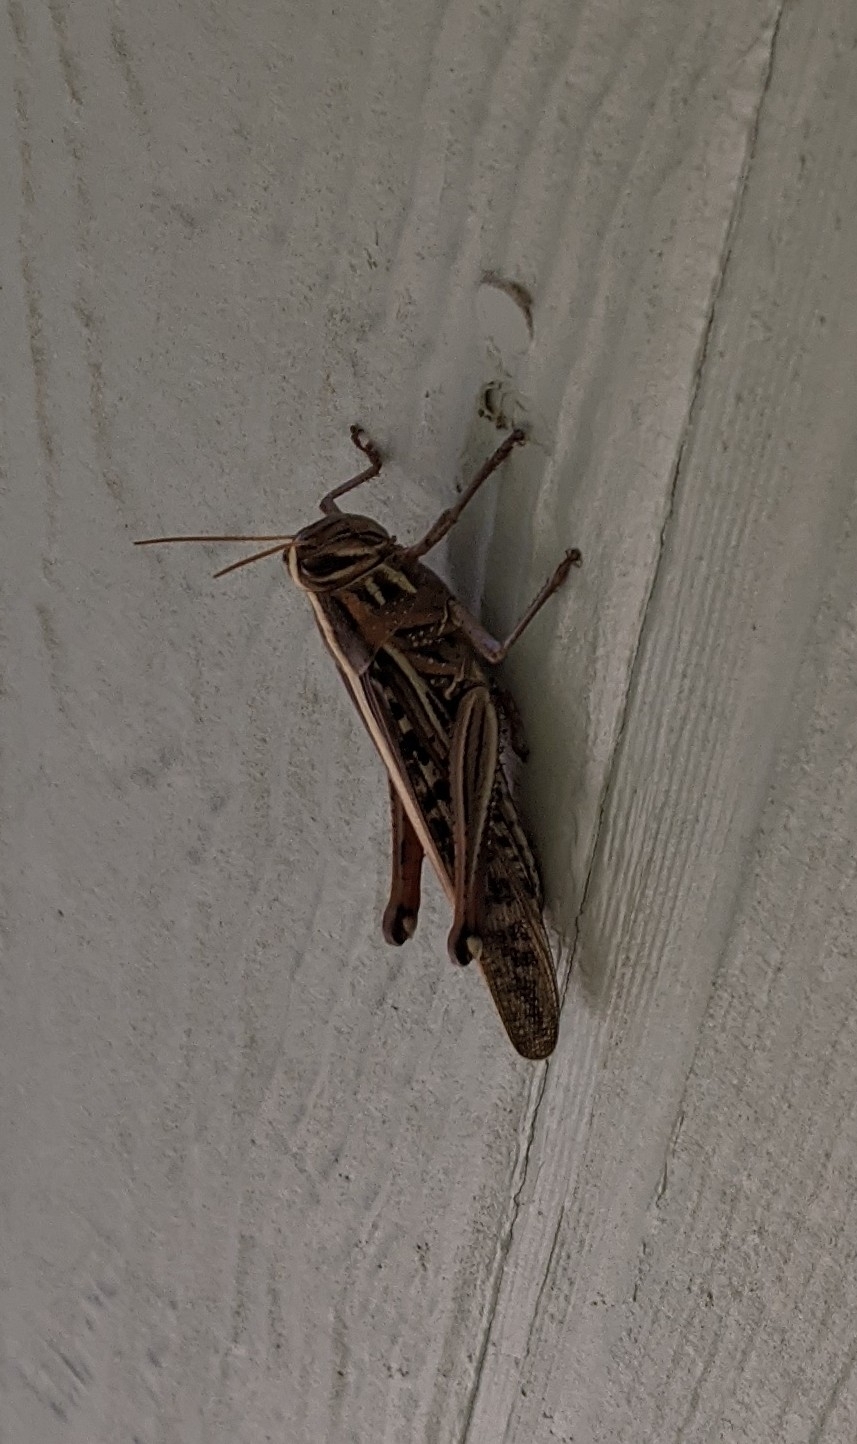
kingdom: Animalia
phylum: Arthropoda
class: Insecta
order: Orthoptera
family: Acrididae
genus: Schistocerca
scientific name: Schistocerca americana
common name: American bird locust
